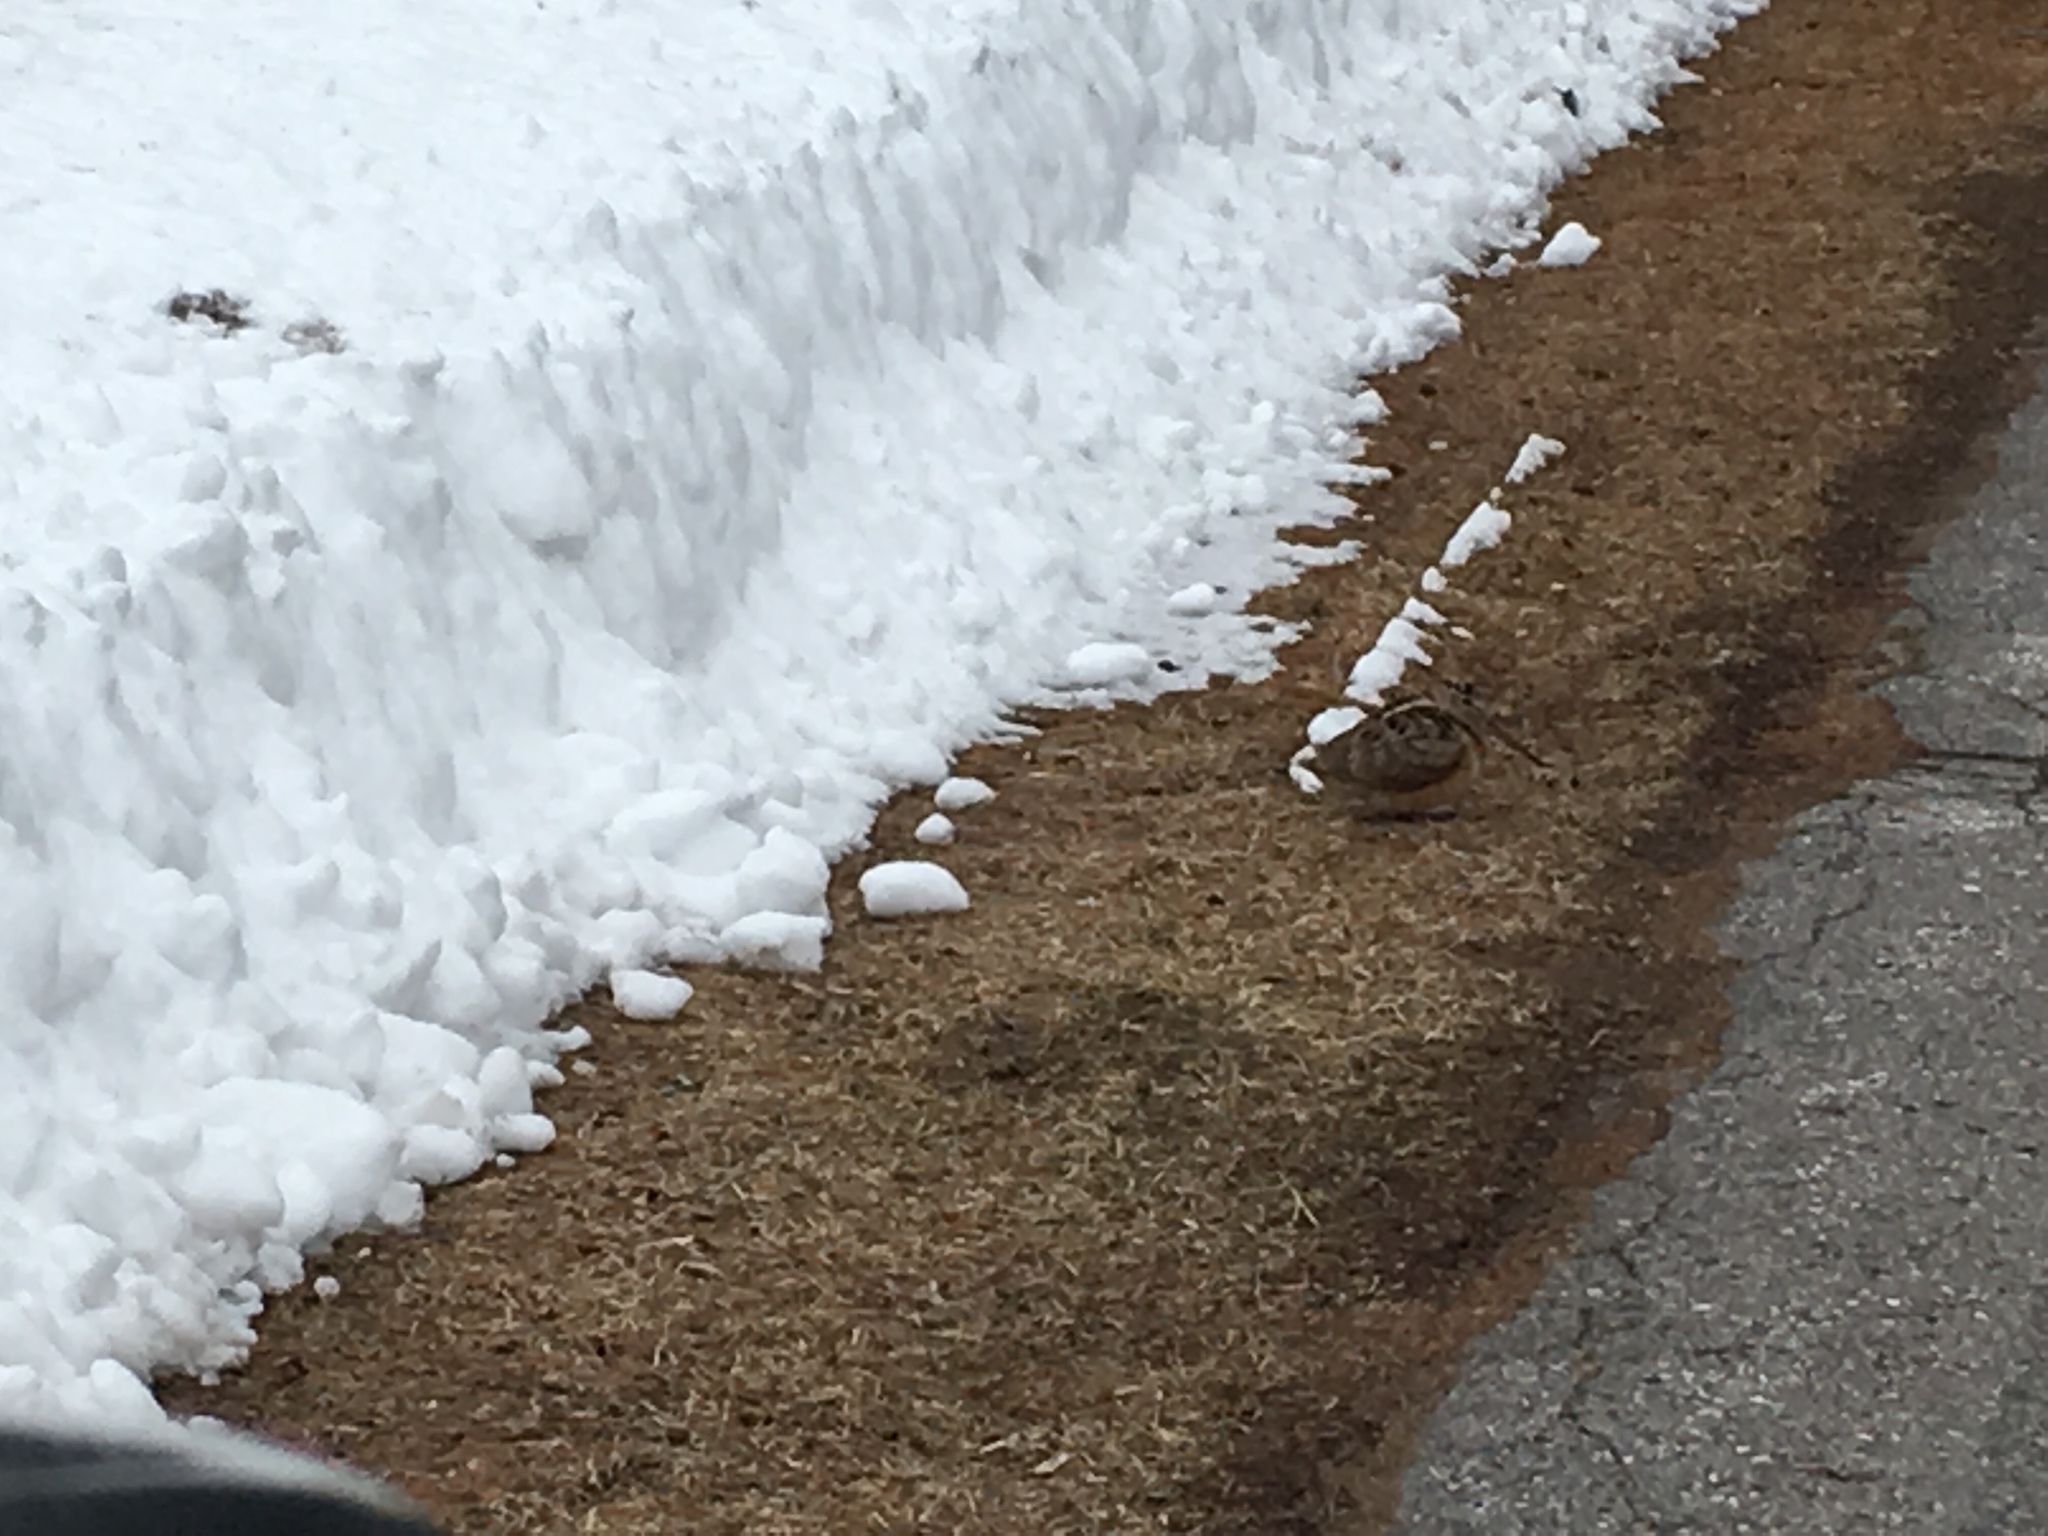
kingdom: Animalia
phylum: Chordata
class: Aves
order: Charadriiformes
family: Scolopacidae
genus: Scolopax
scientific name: Scolopax minor
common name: American woodcock
